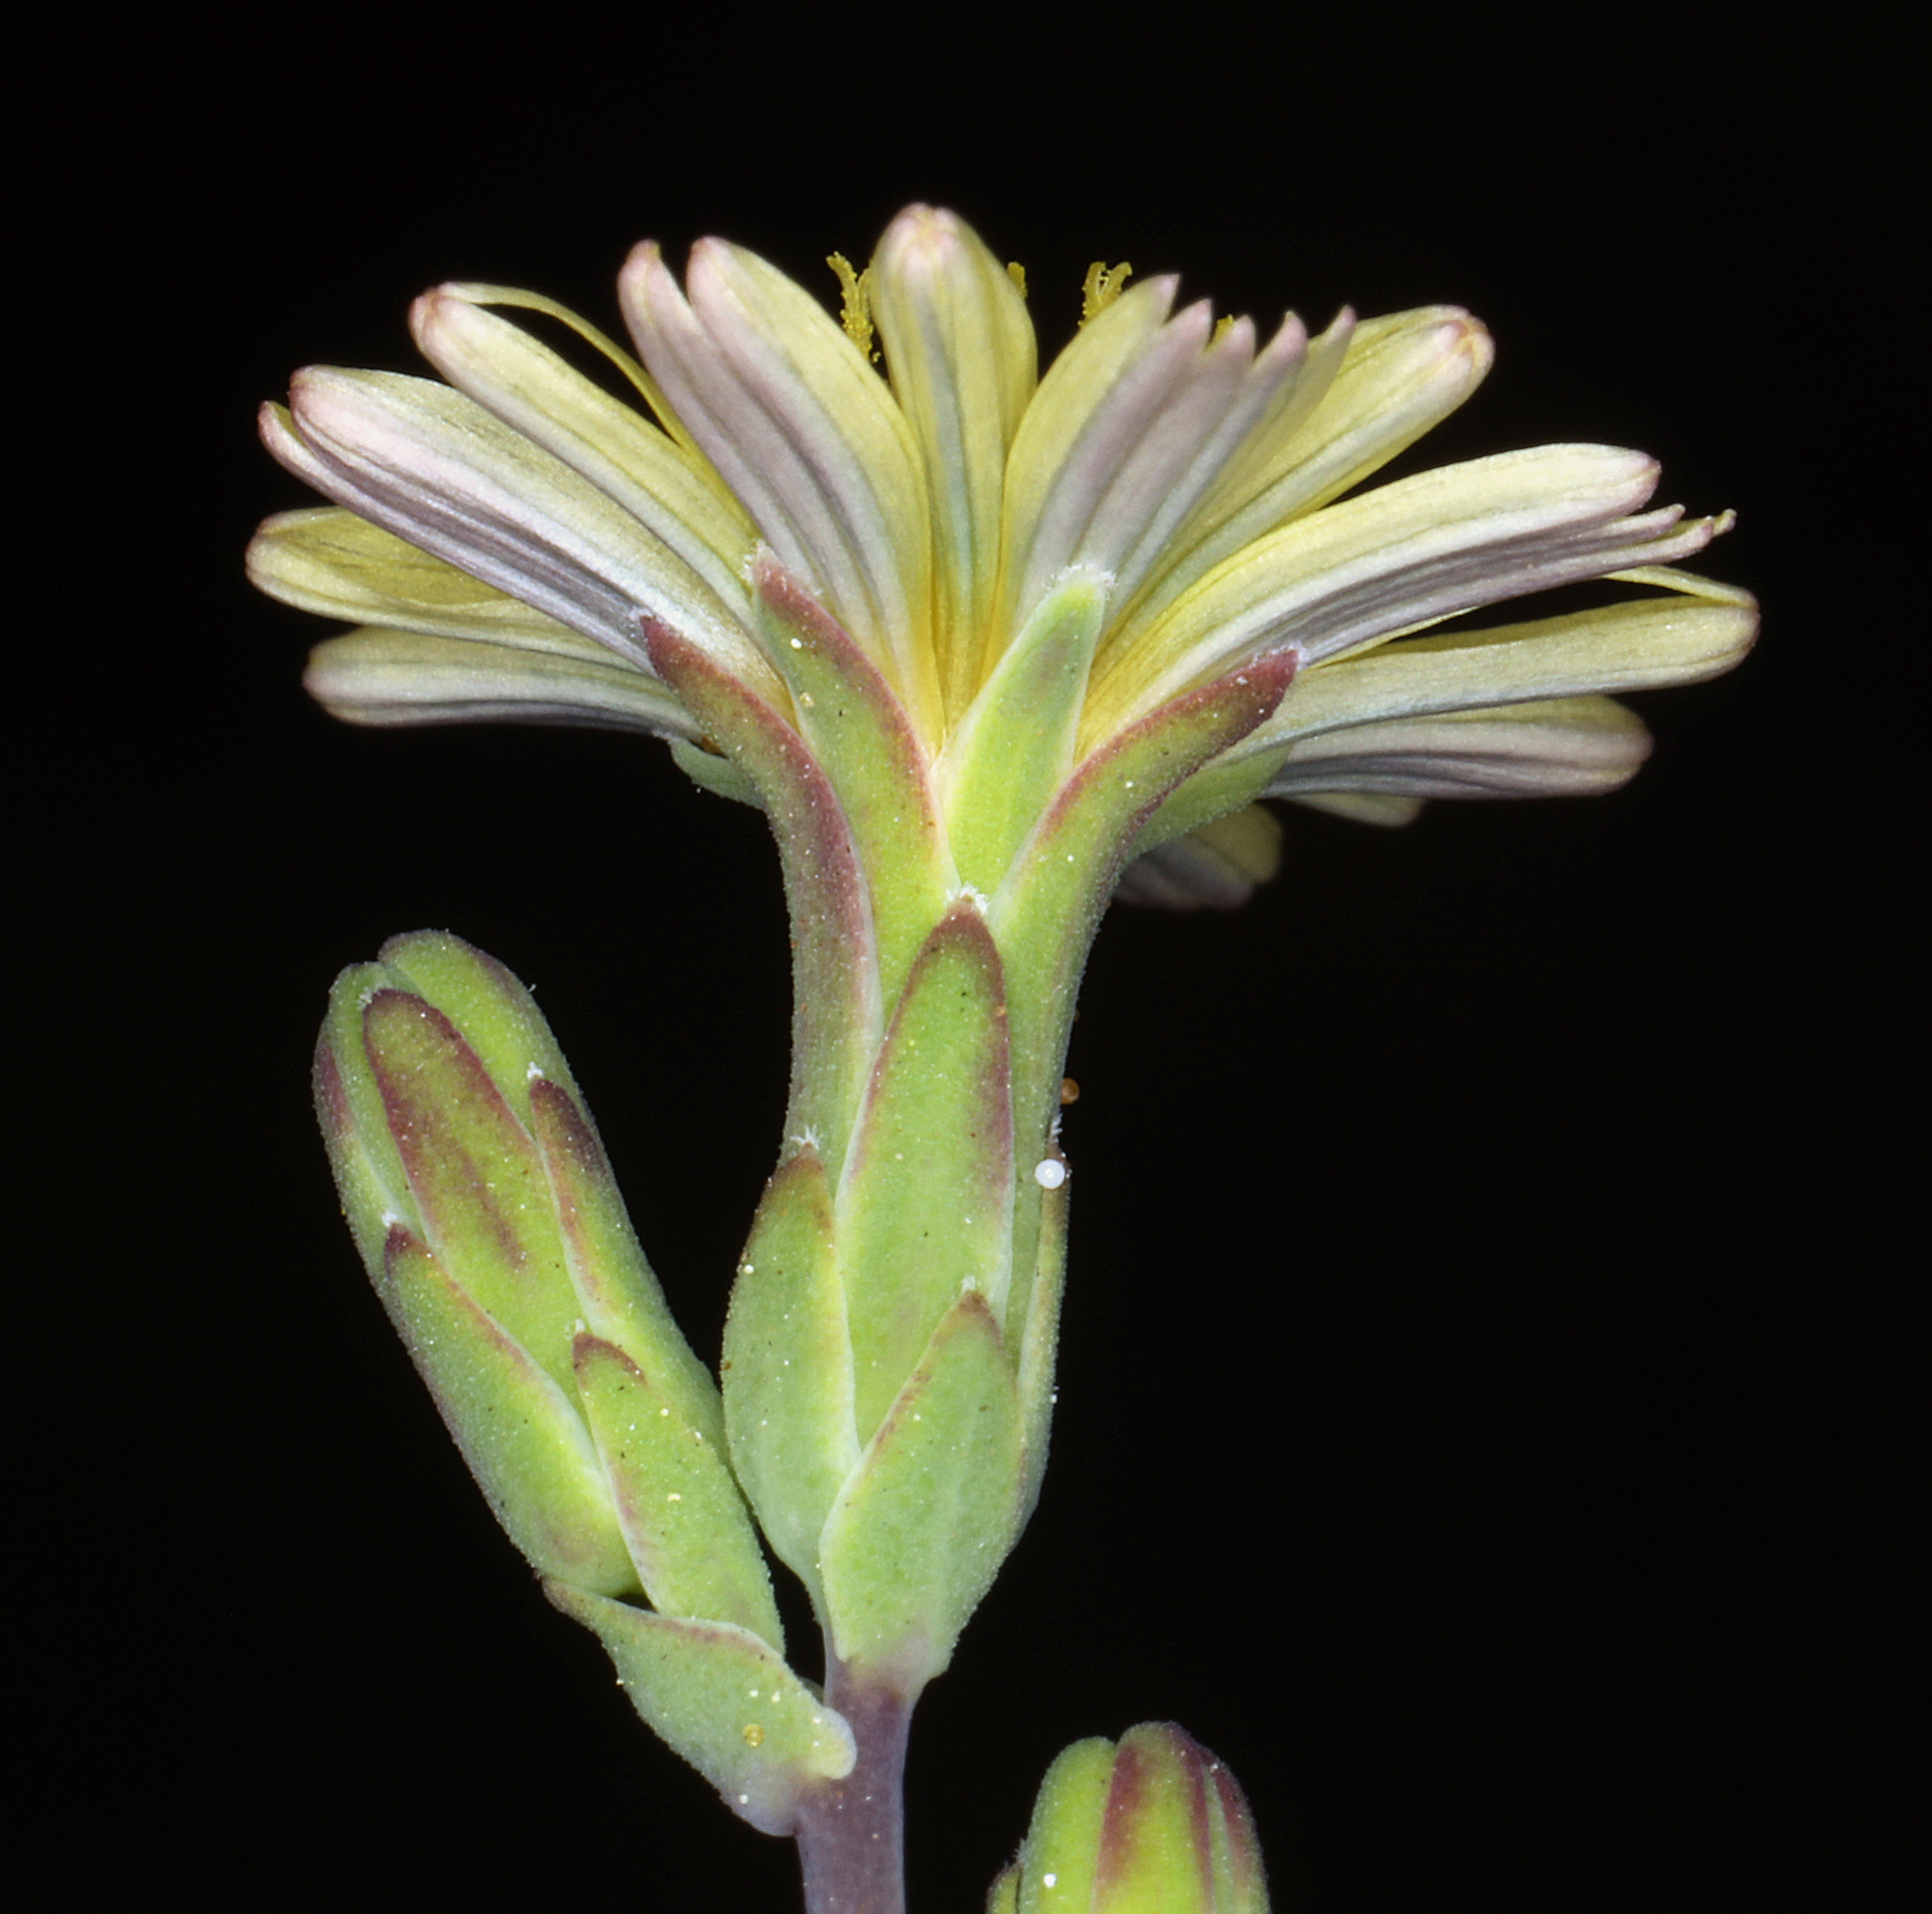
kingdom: Plantae
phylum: Tracheophyta
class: Magnoliopsida
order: Asterales
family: Asteraceae
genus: Lactuca
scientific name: Lactuca serriola
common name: Prickly lettuce
